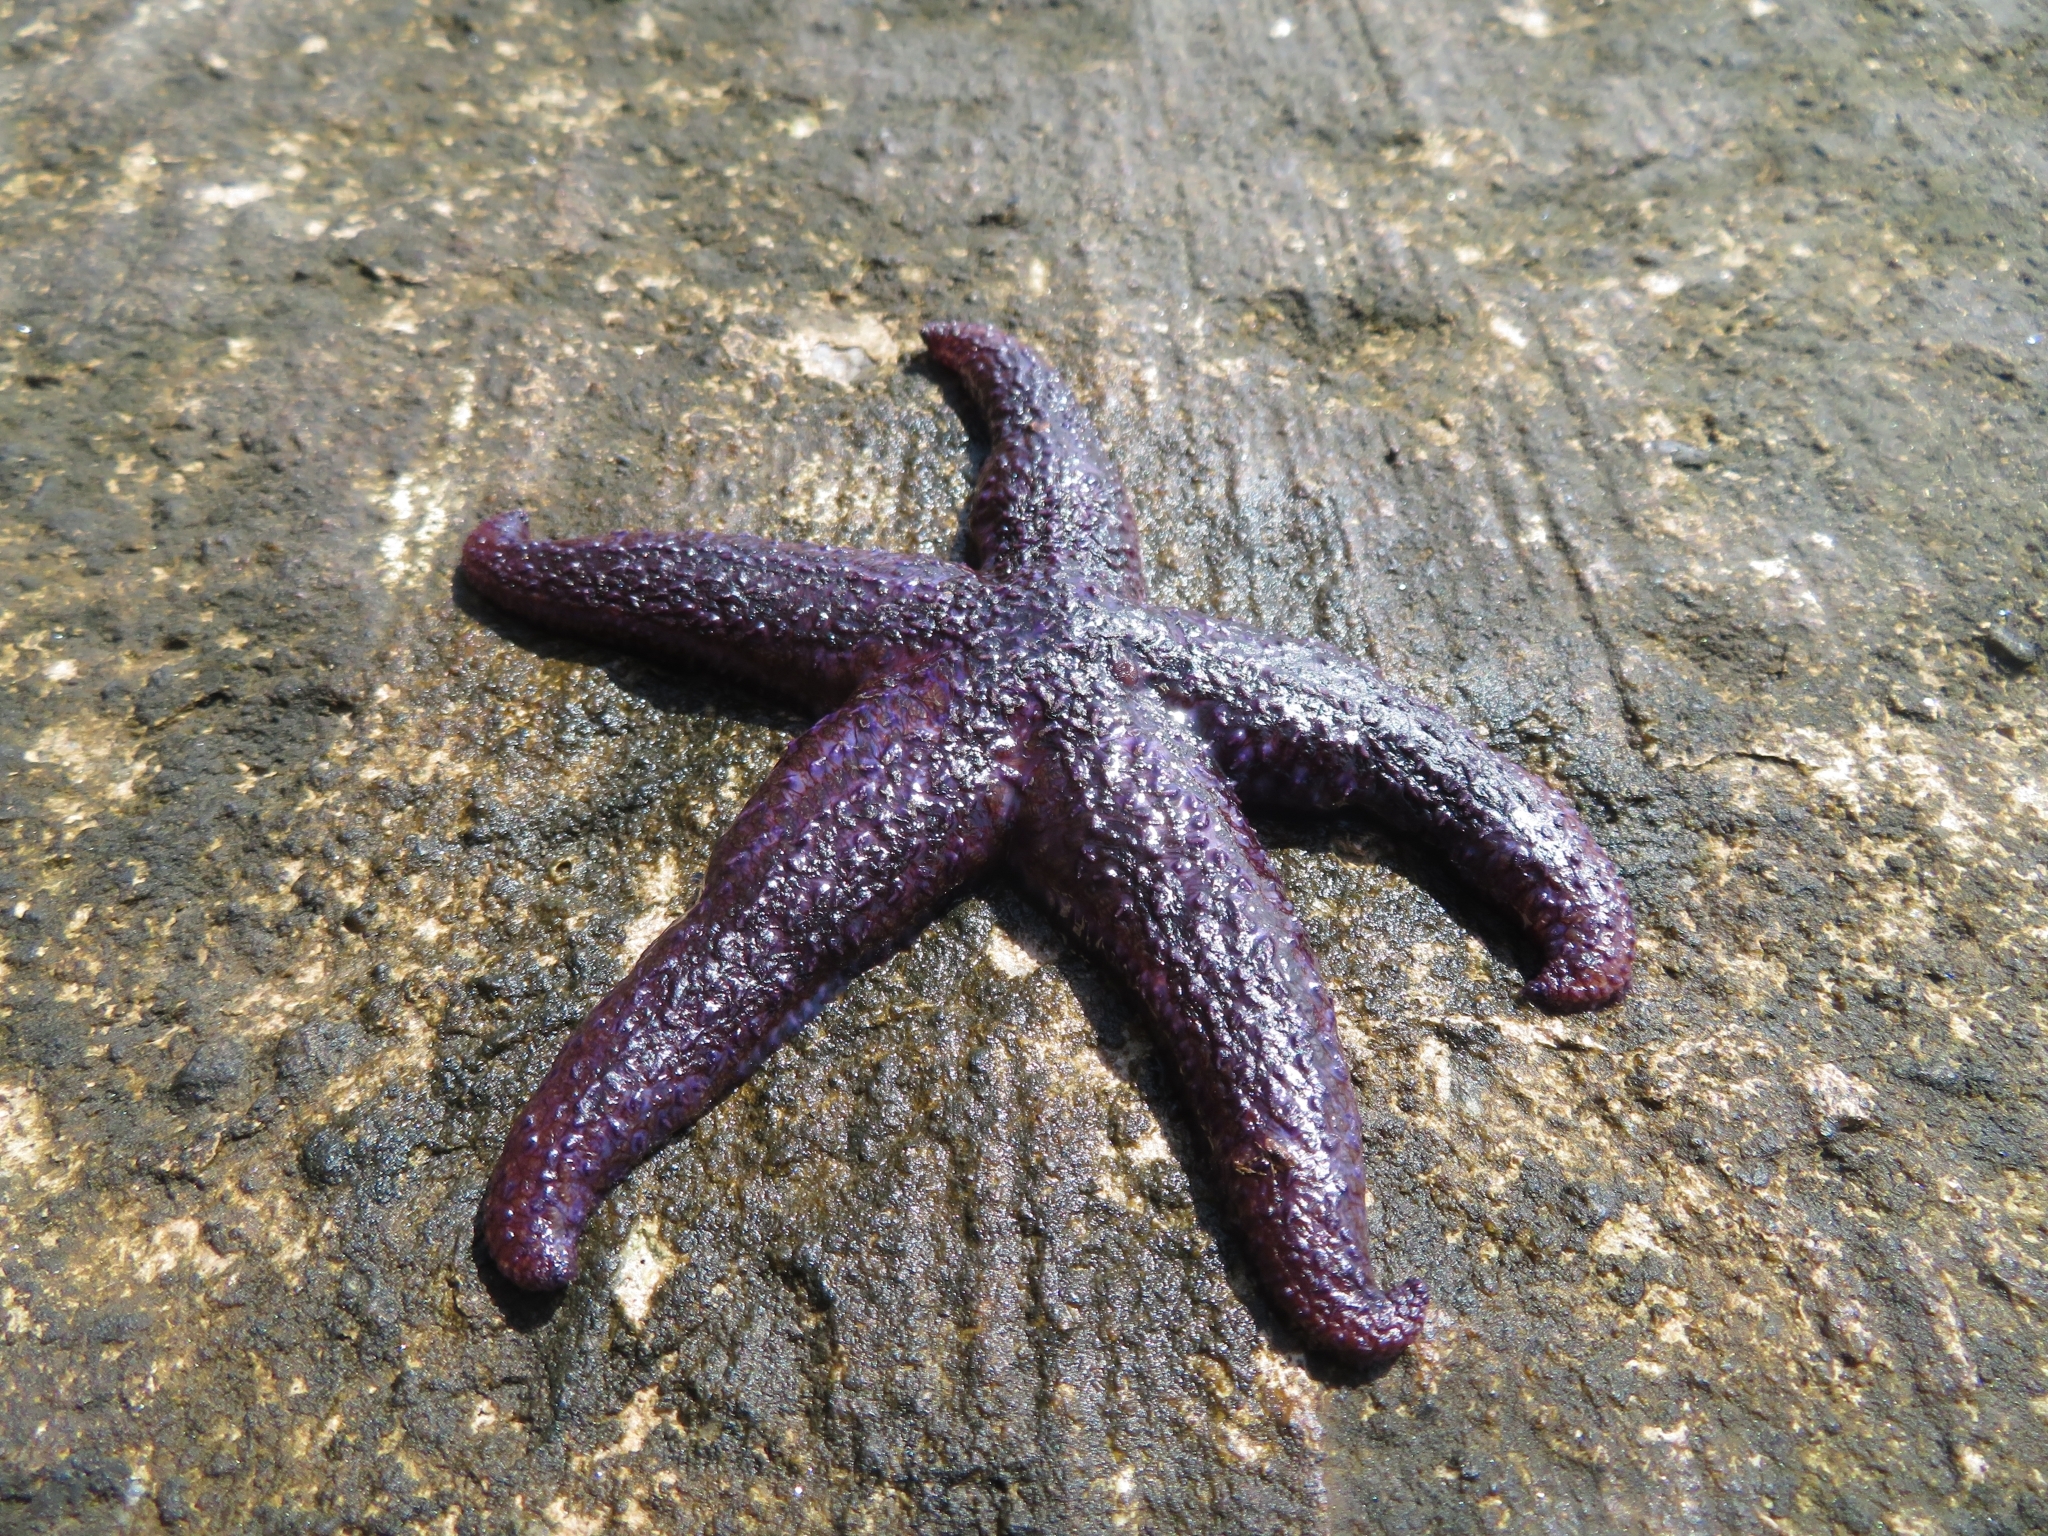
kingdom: Animalia
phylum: Echinodermata
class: Asteroidea
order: Forcipulatida
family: Asteriidae
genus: Asterias
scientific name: Asterias rubens
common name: Common starfish
